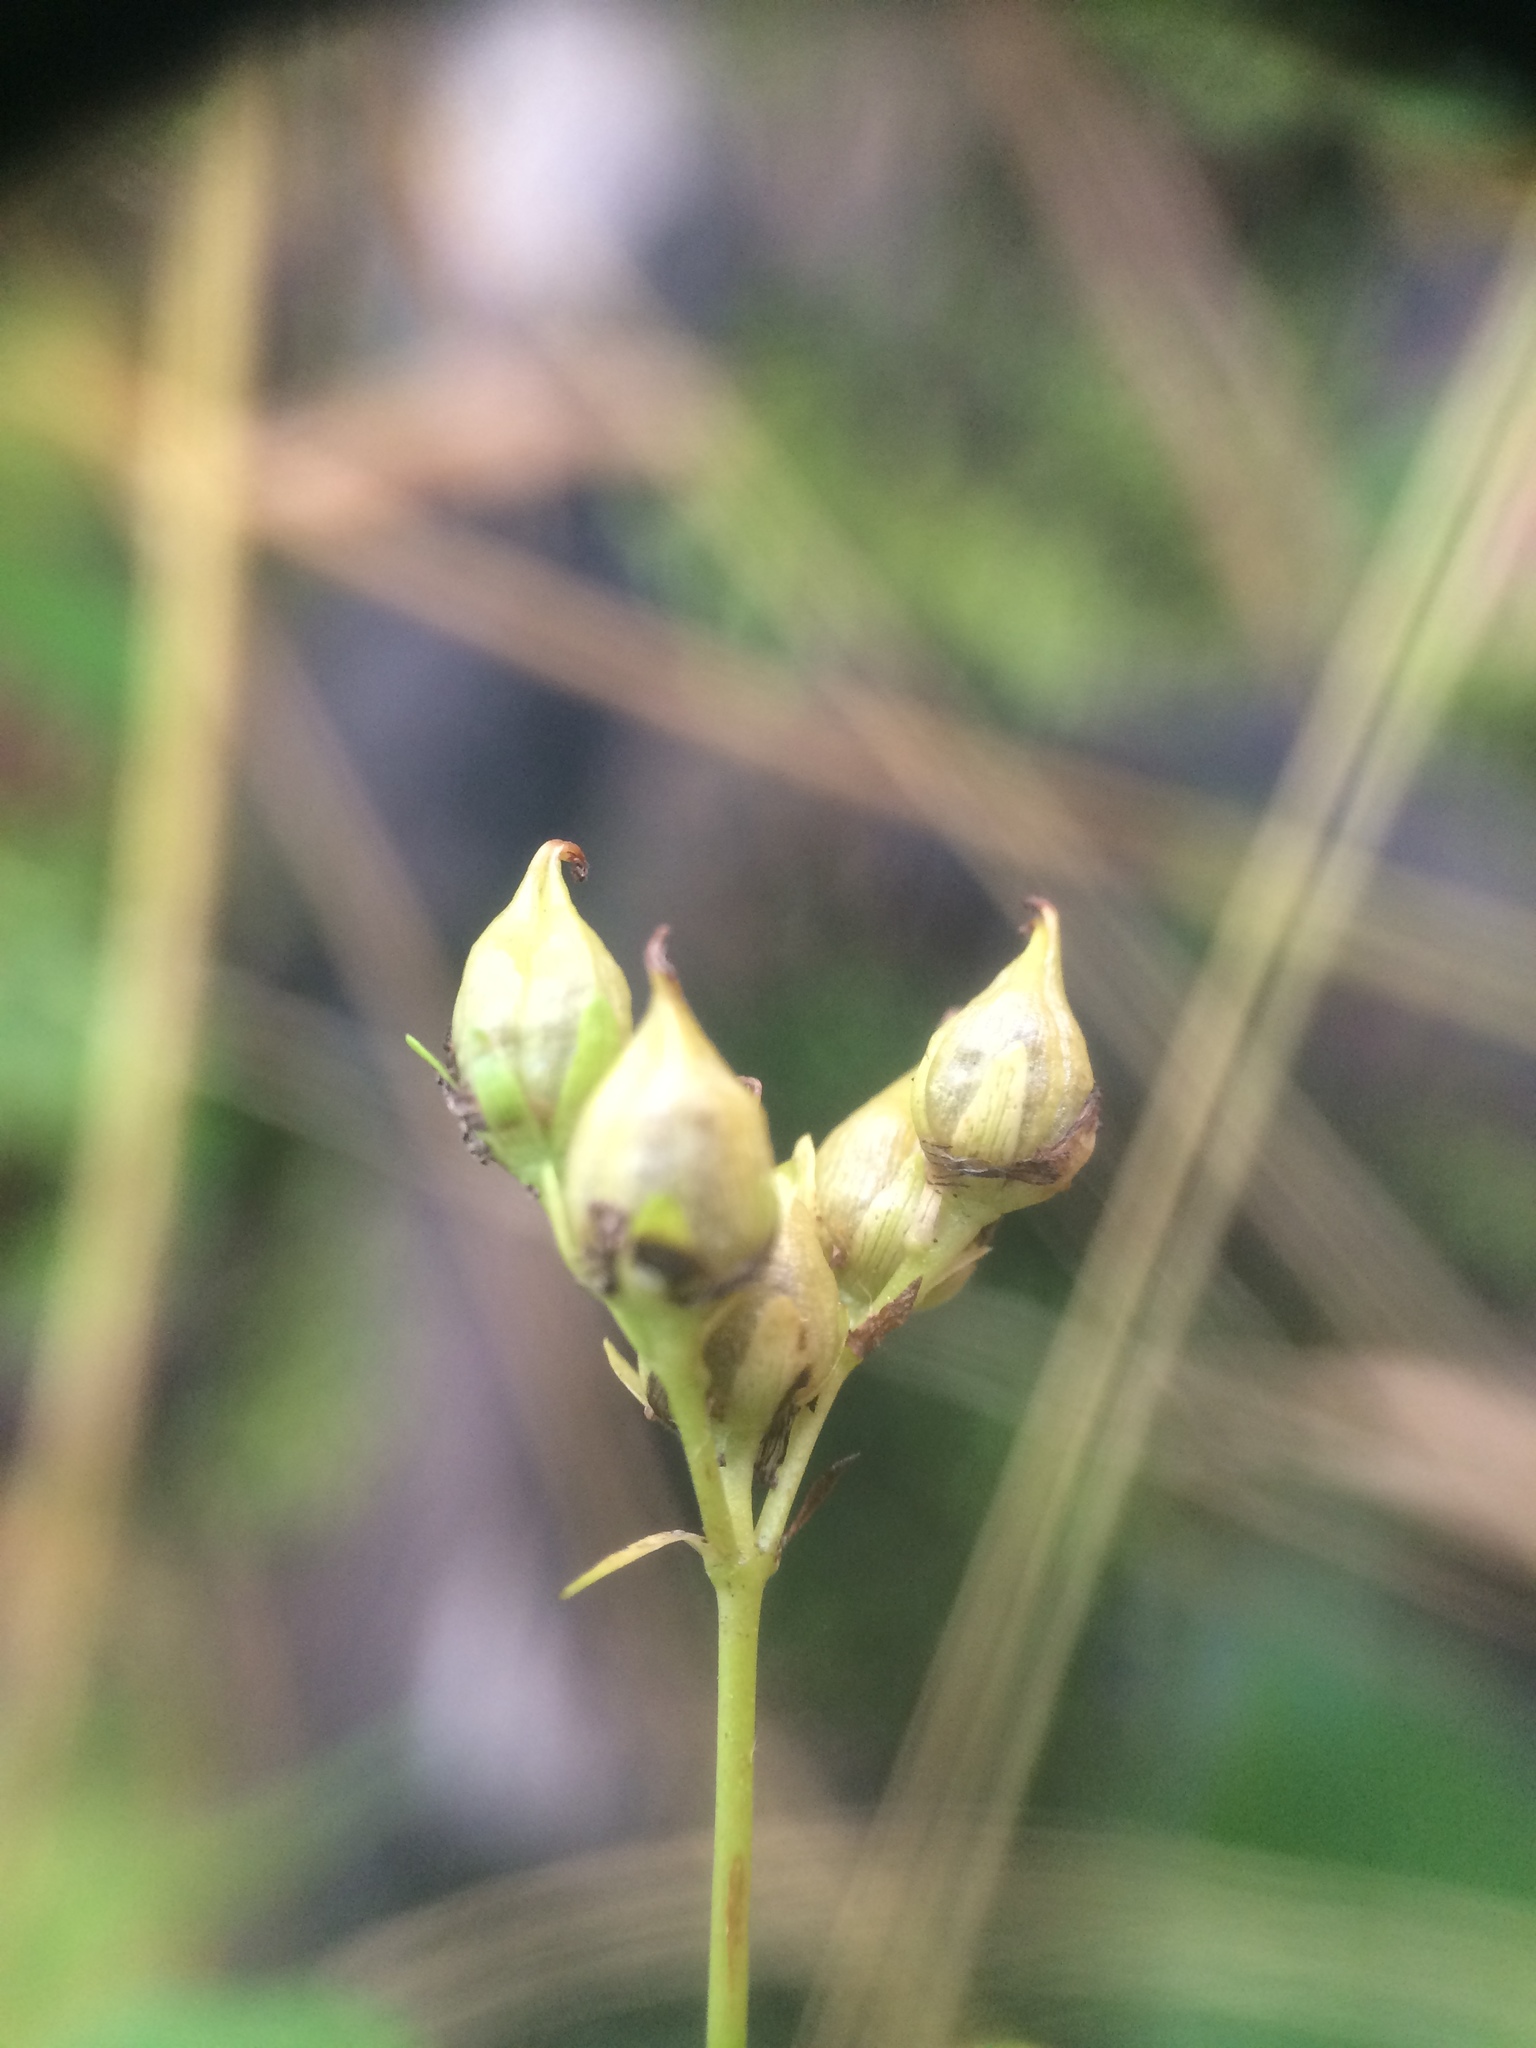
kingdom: Plantae
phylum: Tracheophyta
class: Magnoliopsida
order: Malpighiales
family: Hypericaceae
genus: Hypericum
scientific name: Hypericum punctatum
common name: Spotted st. john's-wort
